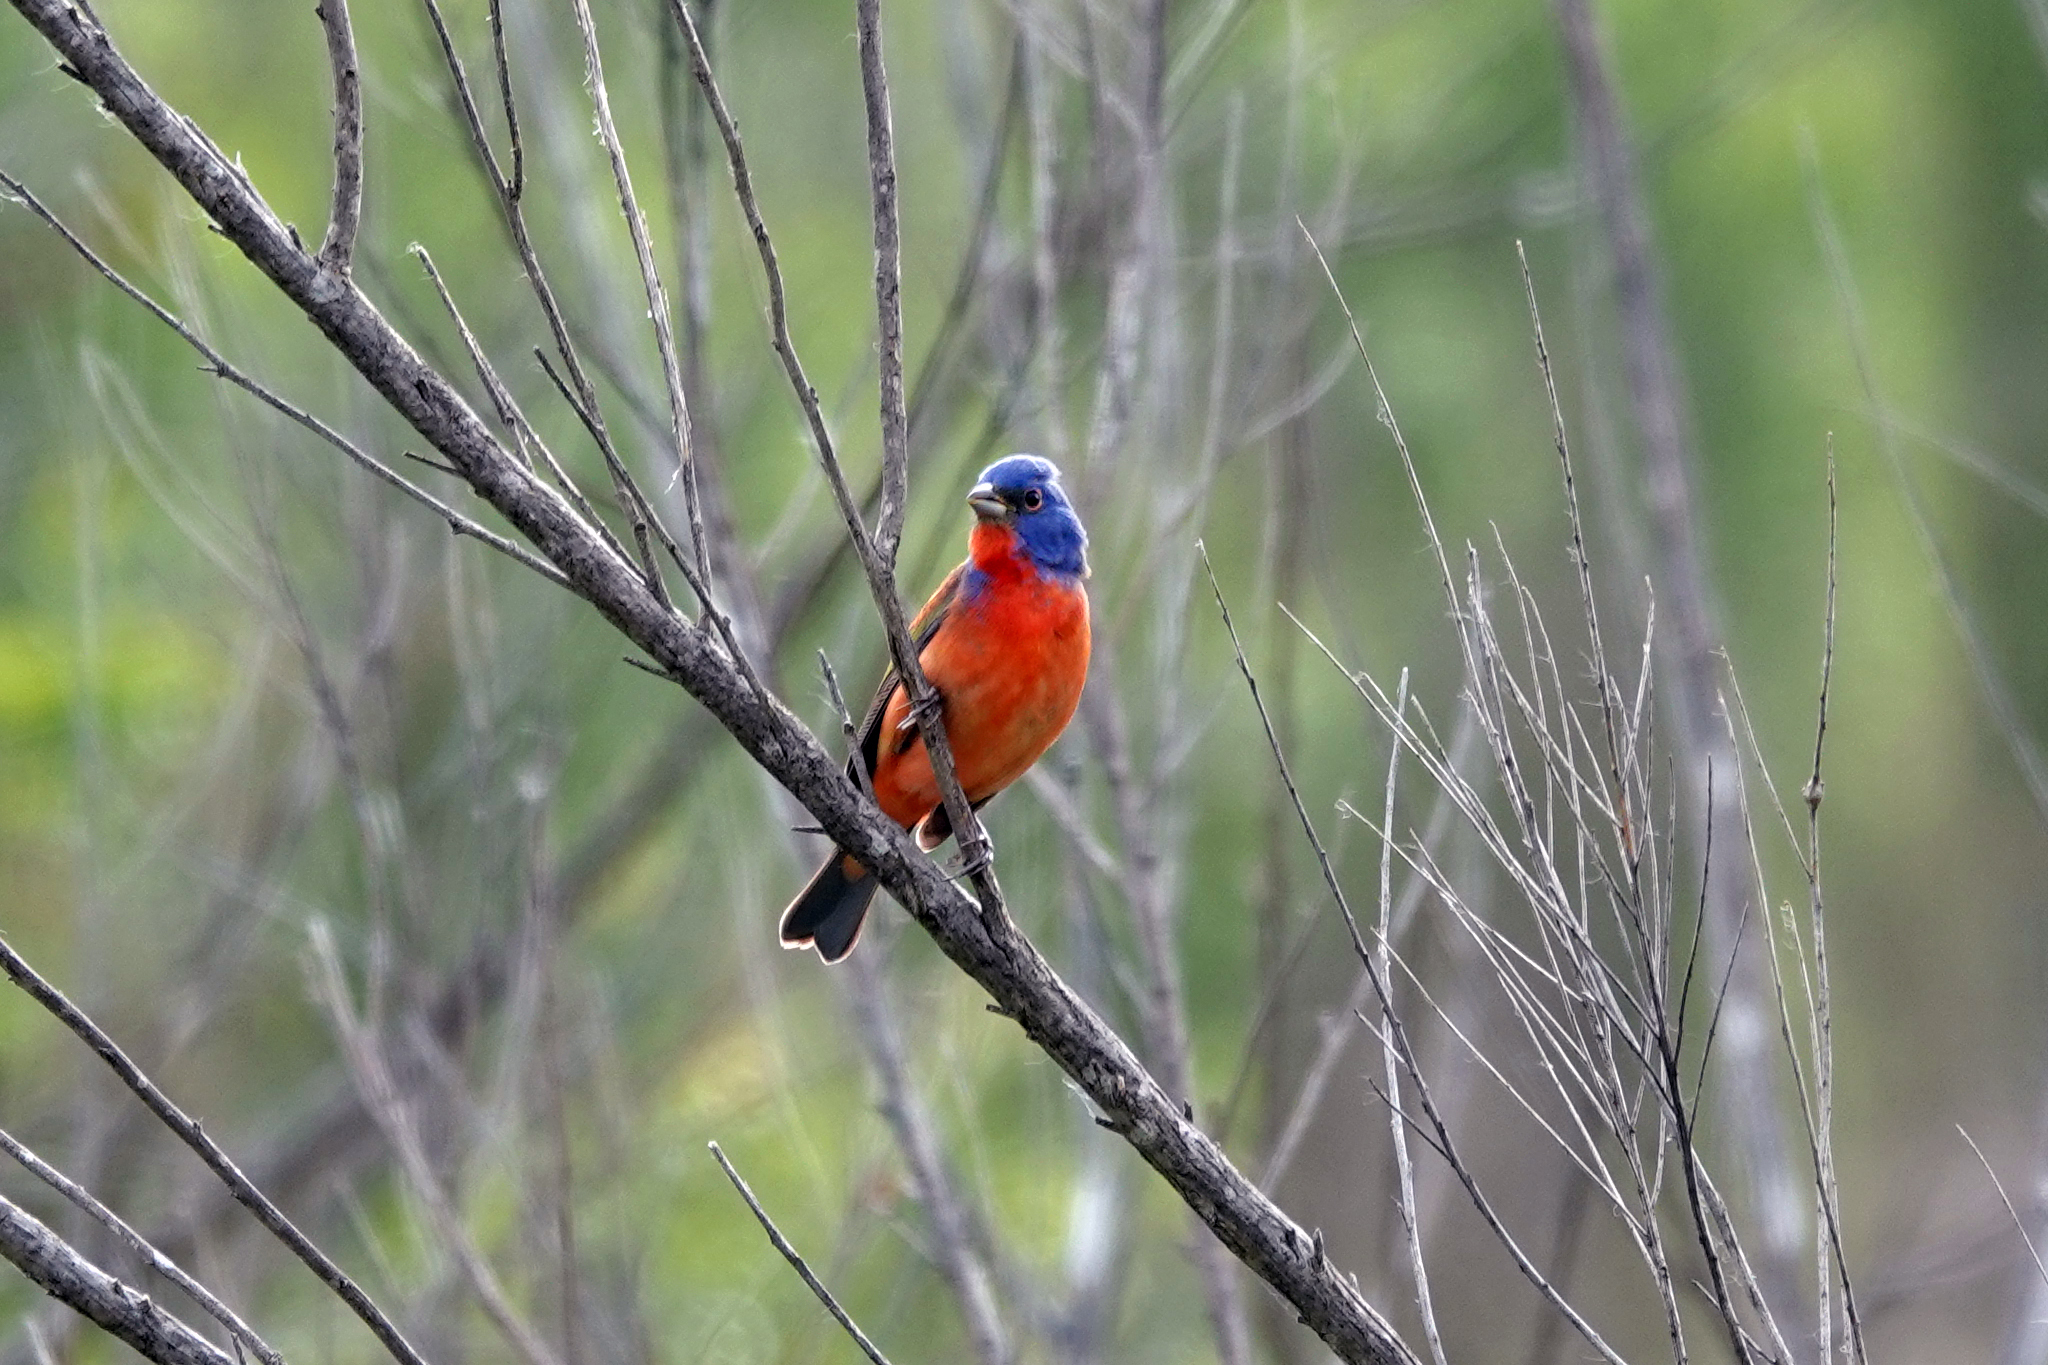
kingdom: Animalia
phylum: Chordata
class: Aves
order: Passeriformes
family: Cardinalidae
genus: Passerina
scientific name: Passerina ciris
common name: Painted bunting
